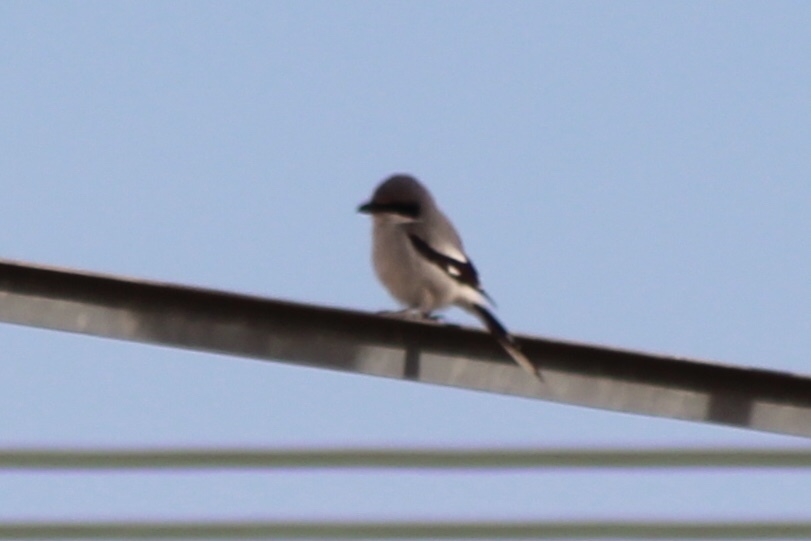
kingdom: Animalia
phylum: Chordata
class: Aves
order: Passeriformes
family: Laniidae
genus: Lanius
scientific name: Lanius ludovicianus
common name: Loggerhead shrike
